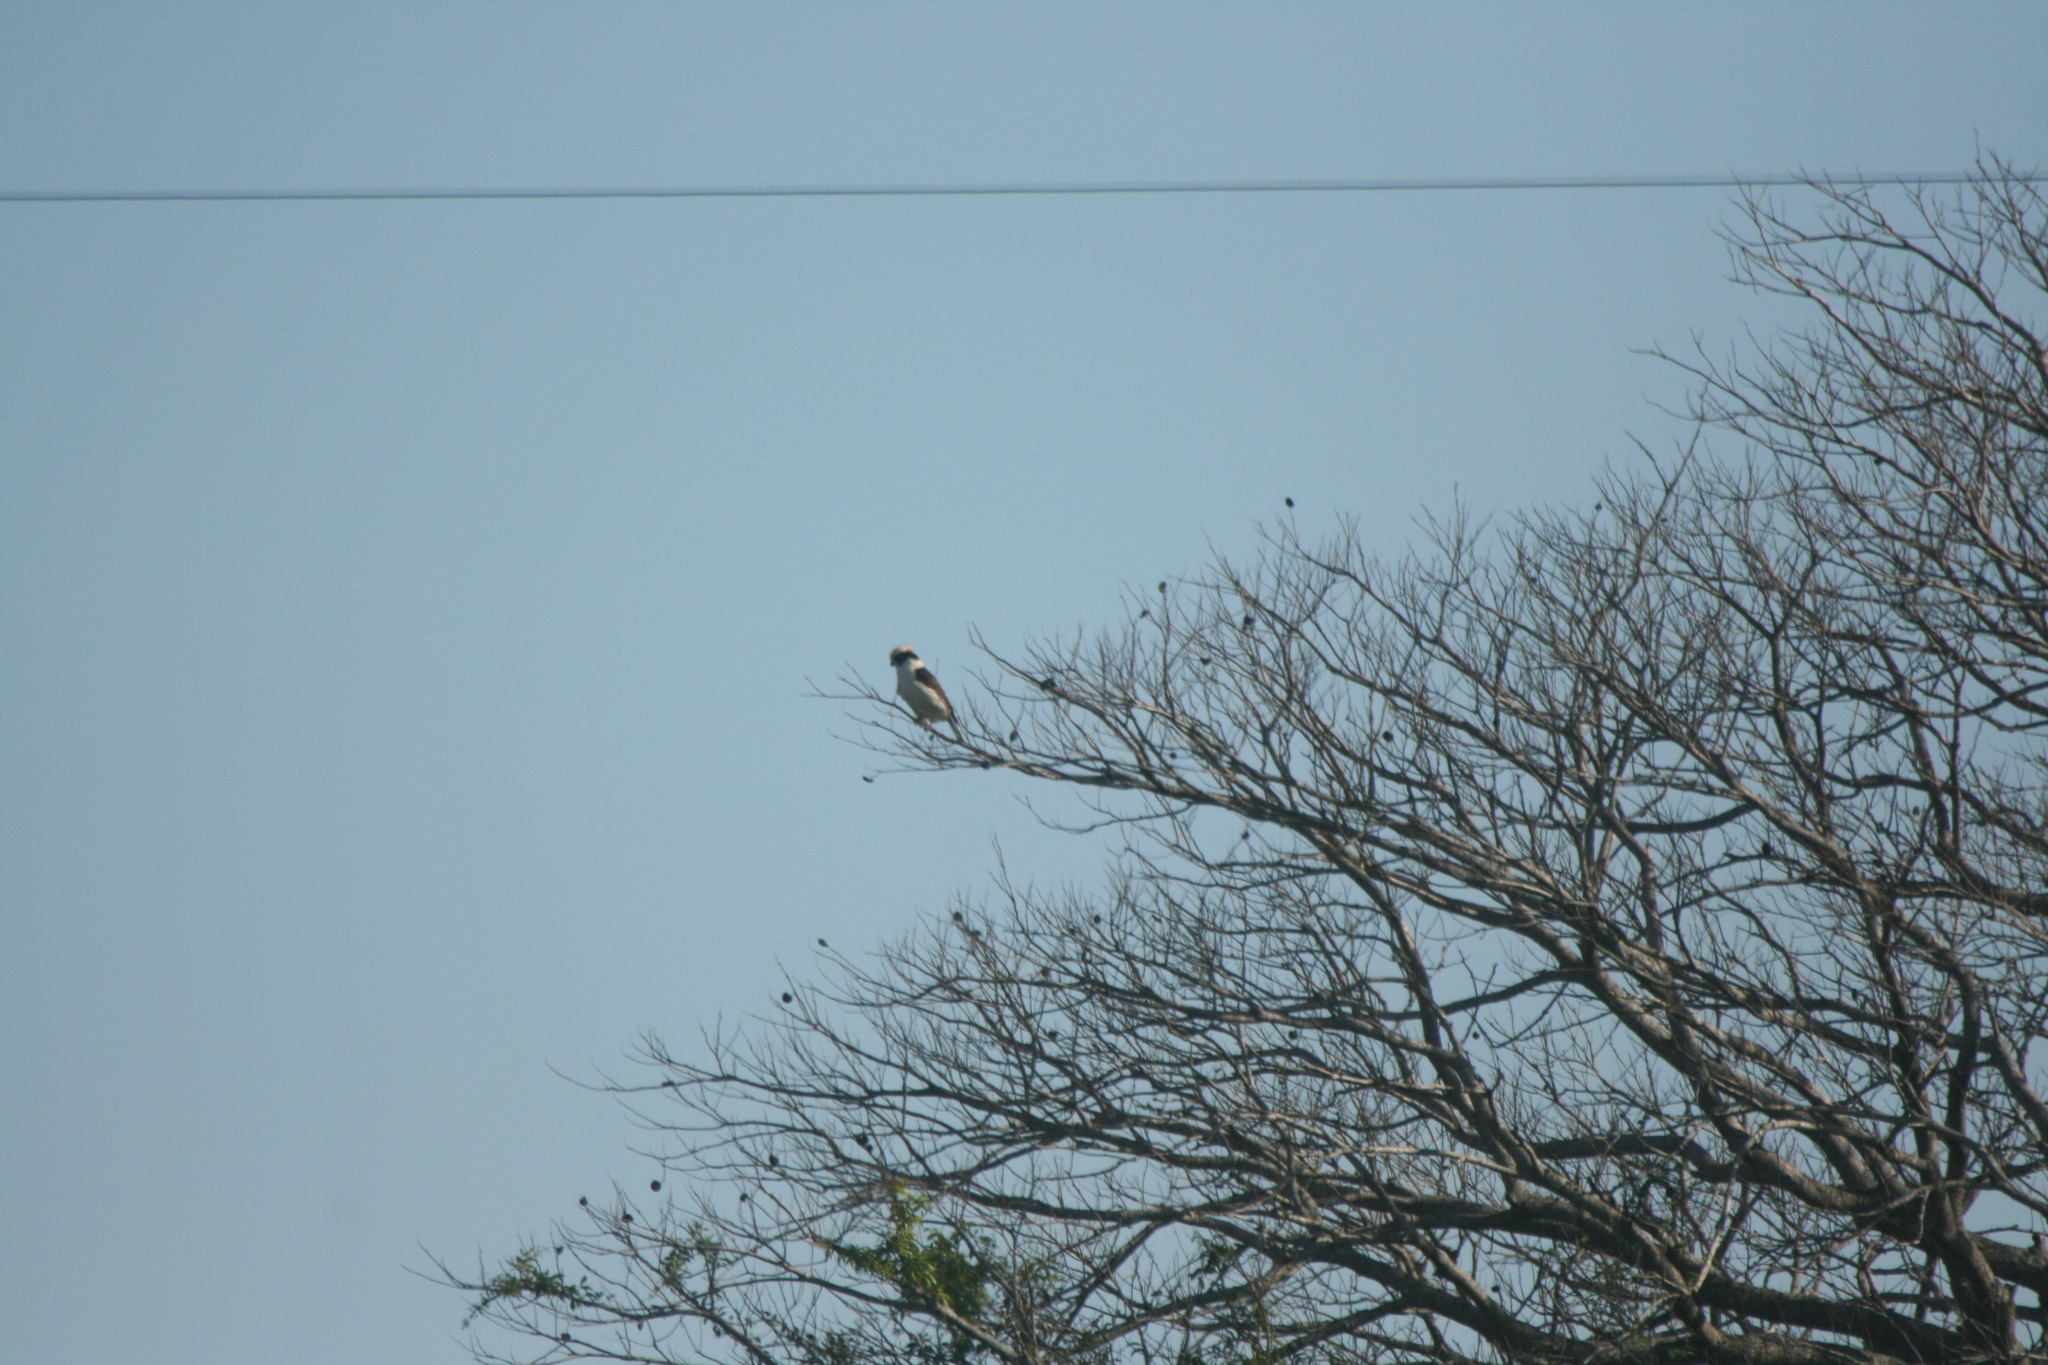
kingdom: Animalia
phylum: Chordata
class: Aves
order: Falconiformes
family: Falconidae
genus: Herpetotheres
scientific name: Herpetotheres cachinnans
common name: Laughing falcon
